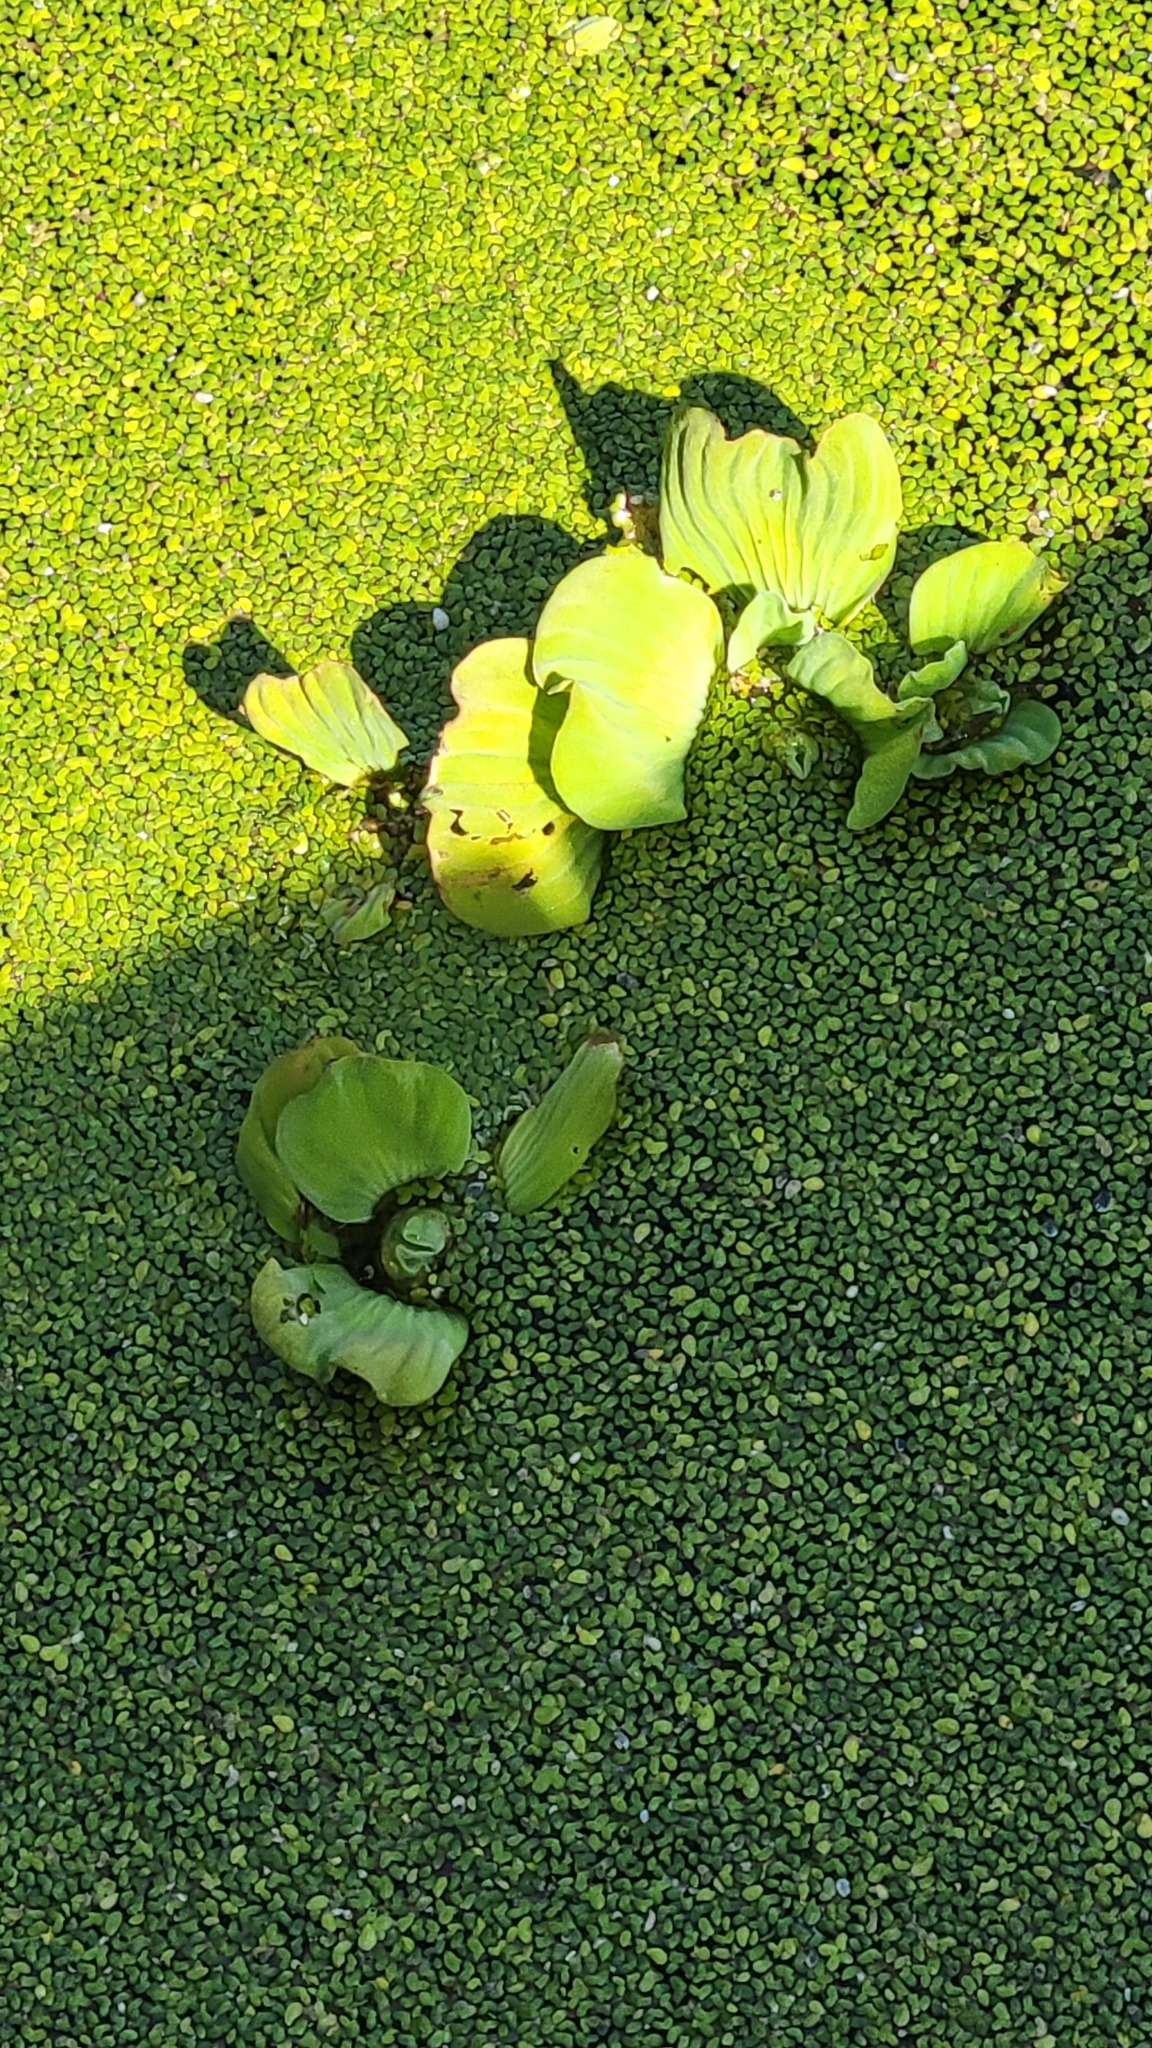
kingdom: Plantae
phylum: Tracheophyta
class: Liliopsida
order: Alismatales
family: Araceae
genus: Pistia
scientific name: Pistia stratiotes
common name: Water lettuce
